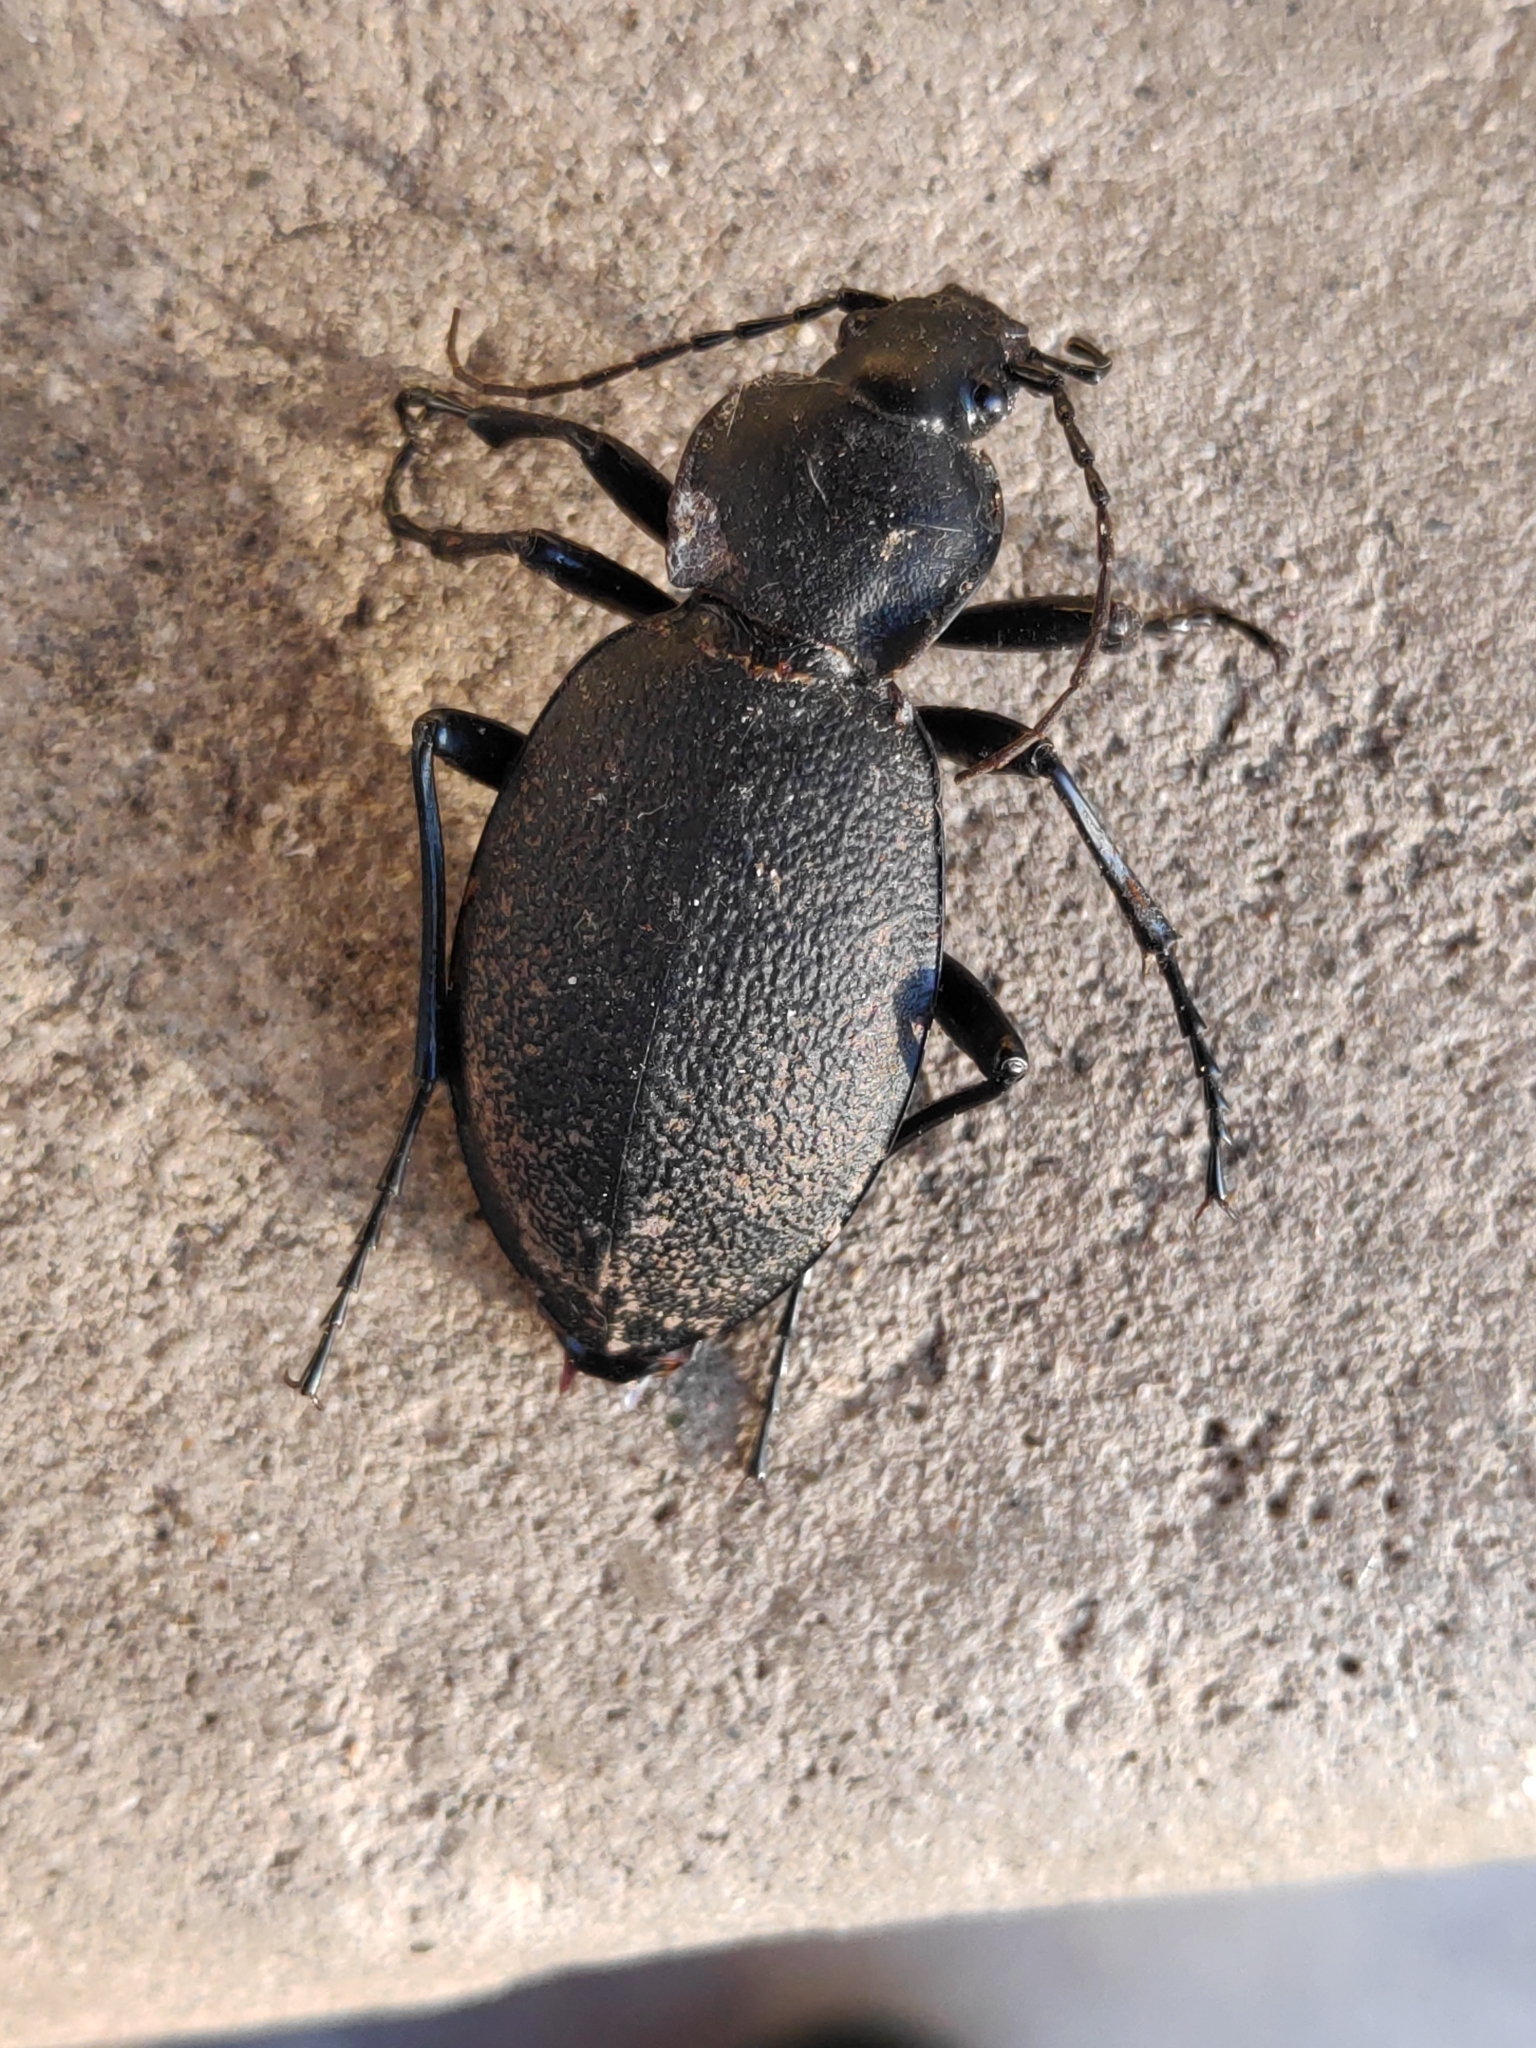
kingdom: Animalia
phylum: Arthropoda
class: Insecta
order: Coleoptera
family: Carabidae
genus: Carabus
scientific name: Carabus coriaceus
